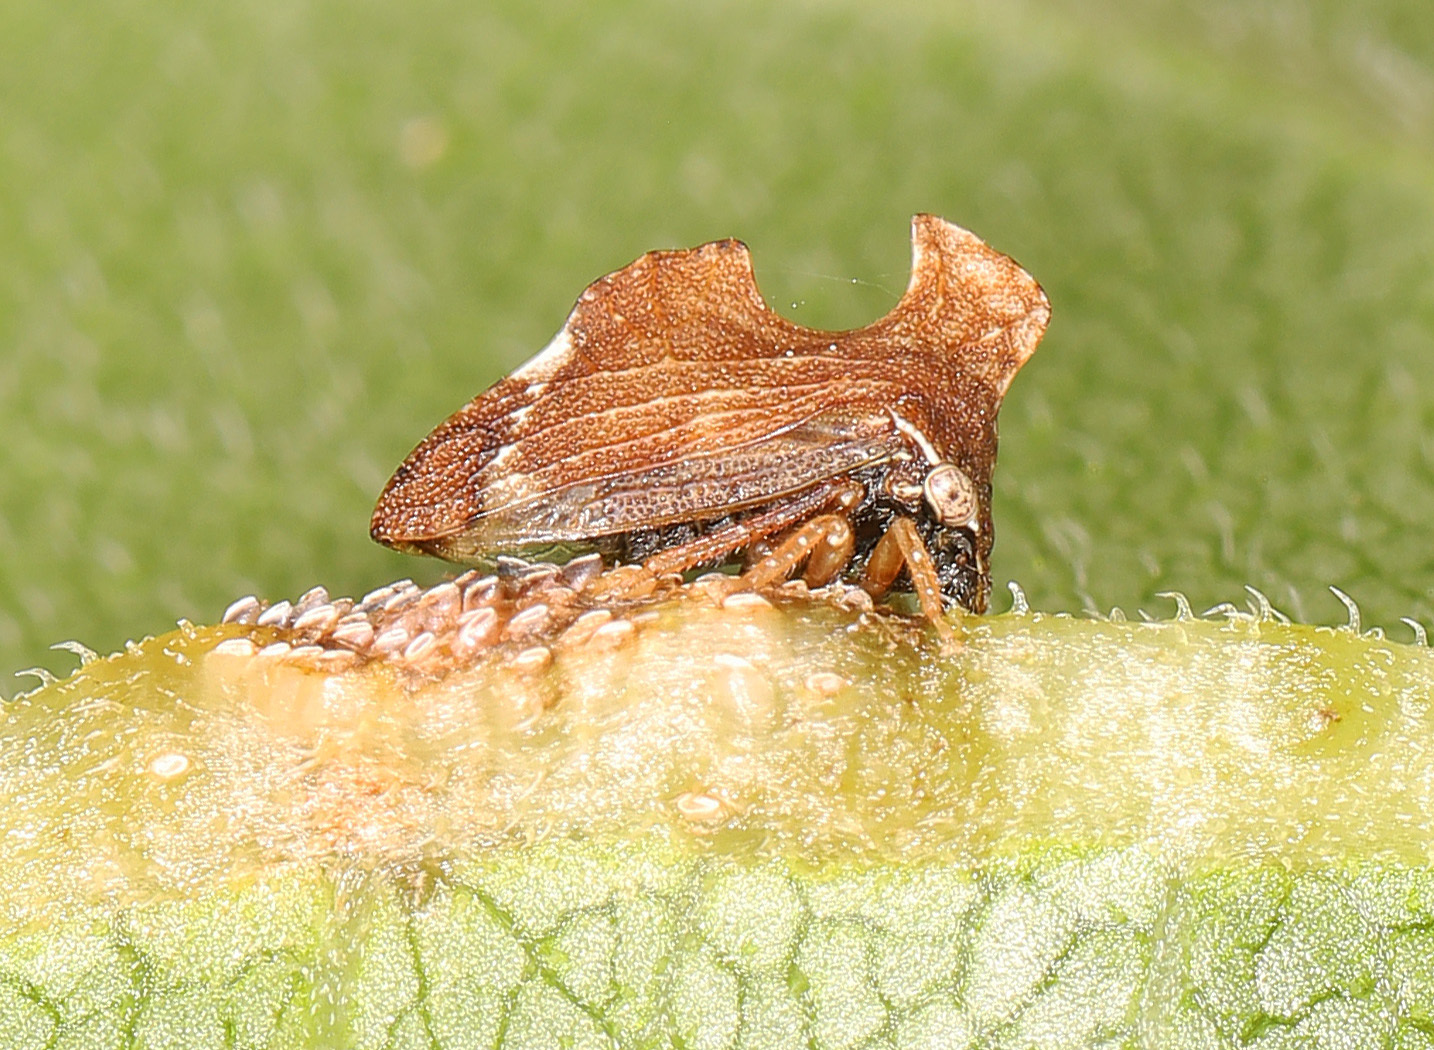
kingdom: Animalia
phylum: Arthropoda
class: Insecta
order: Hemiptera
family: Membracidae
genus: Entylia
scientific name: Entylia carinata
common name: Keeled treehopper
